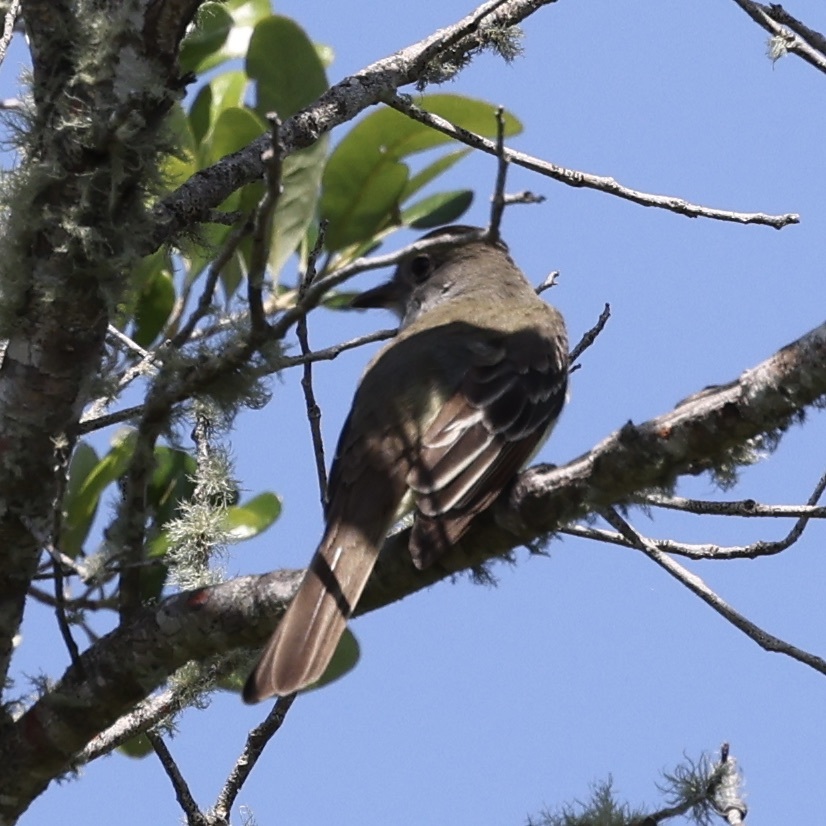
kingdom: Animalia
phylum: Chordata
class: Aves
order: Passeriformes
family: Tyrannidae
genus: Myiarchus
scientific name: Myiarchus crinitus
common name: Great crested flycatcher
